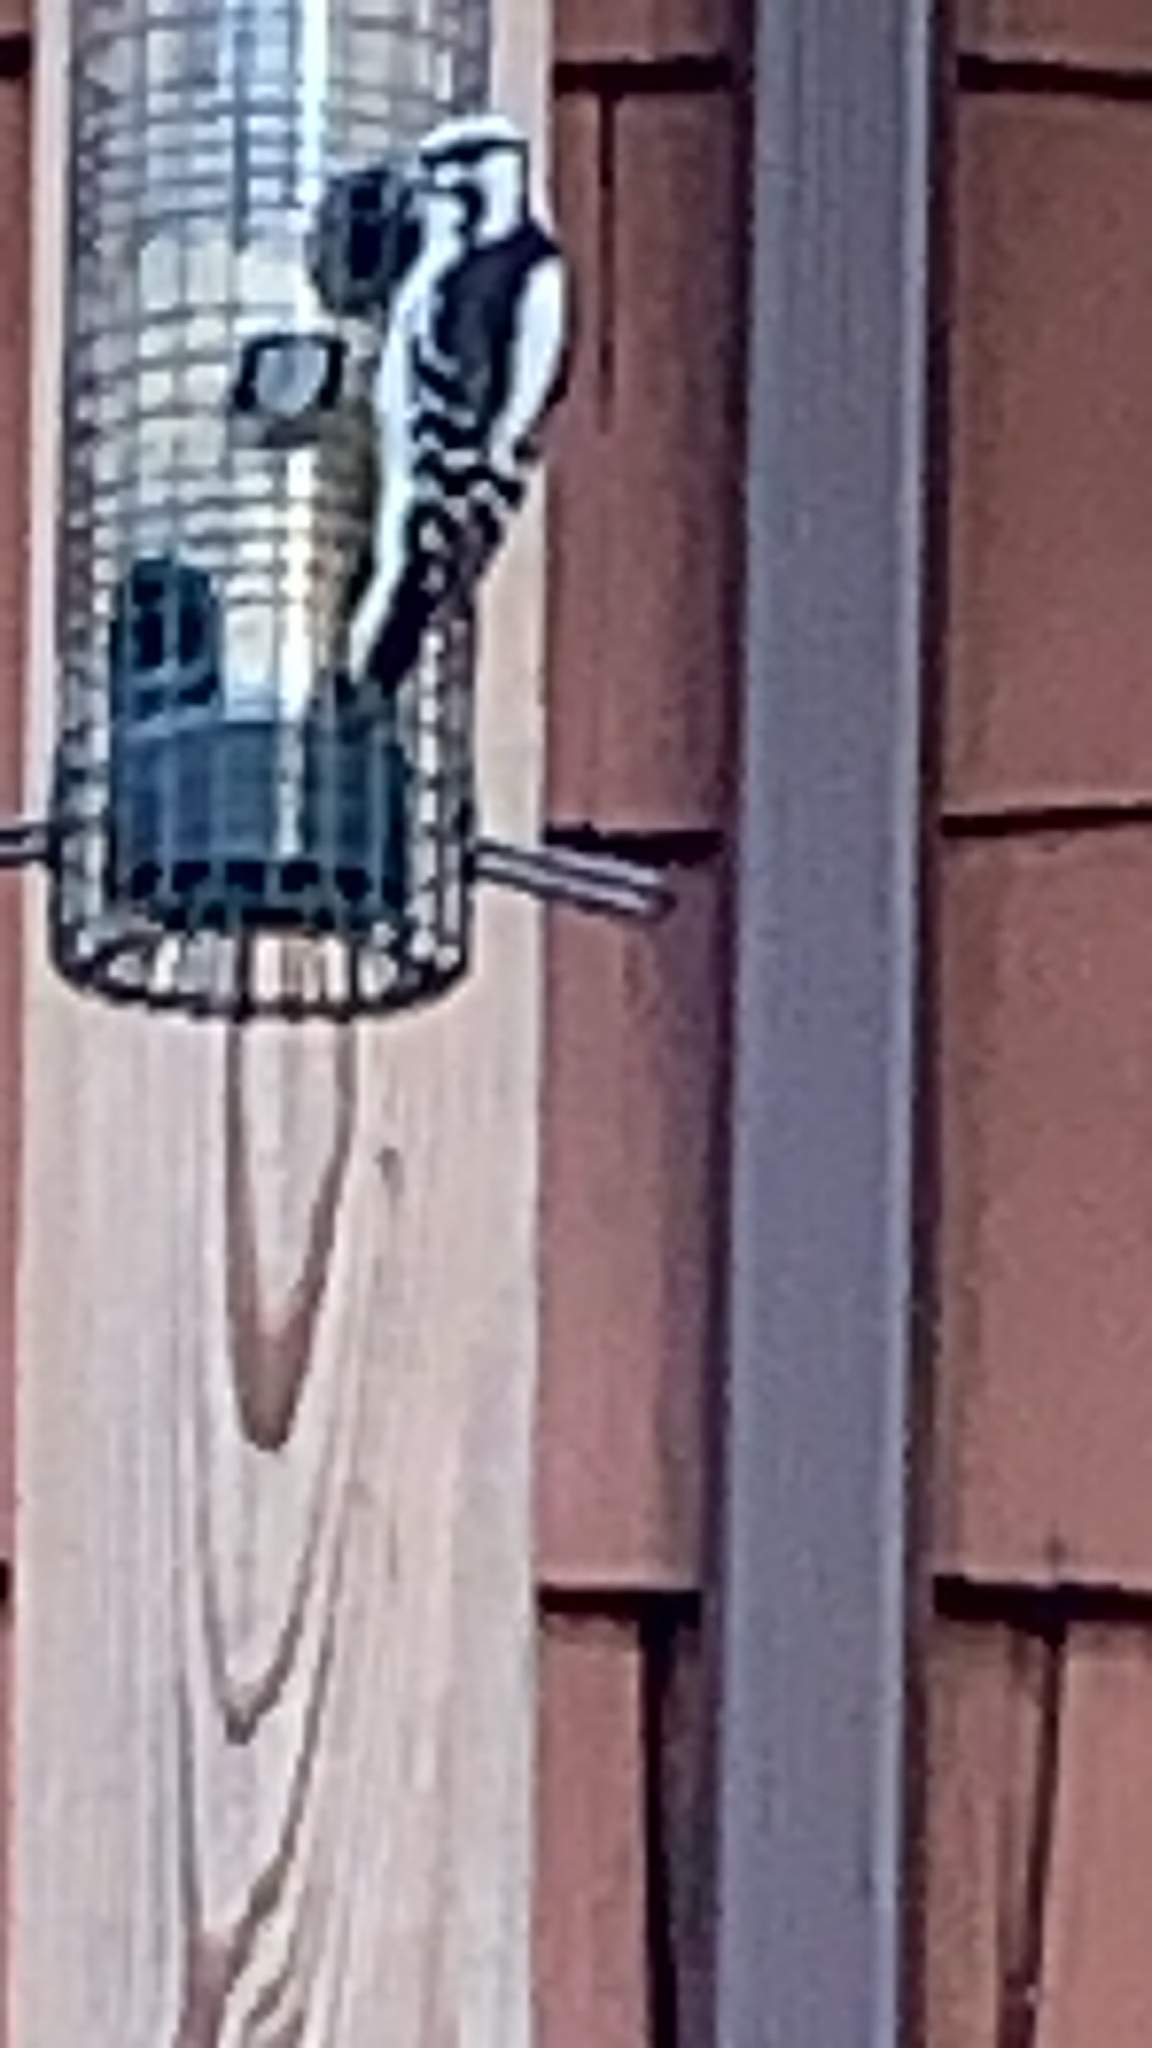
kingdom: Animalia
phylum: Chordata
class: Aves
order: Piciformes
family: Picidae
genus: Dryobates
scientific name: Dryobates pubescens
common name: Downy woodpecker
